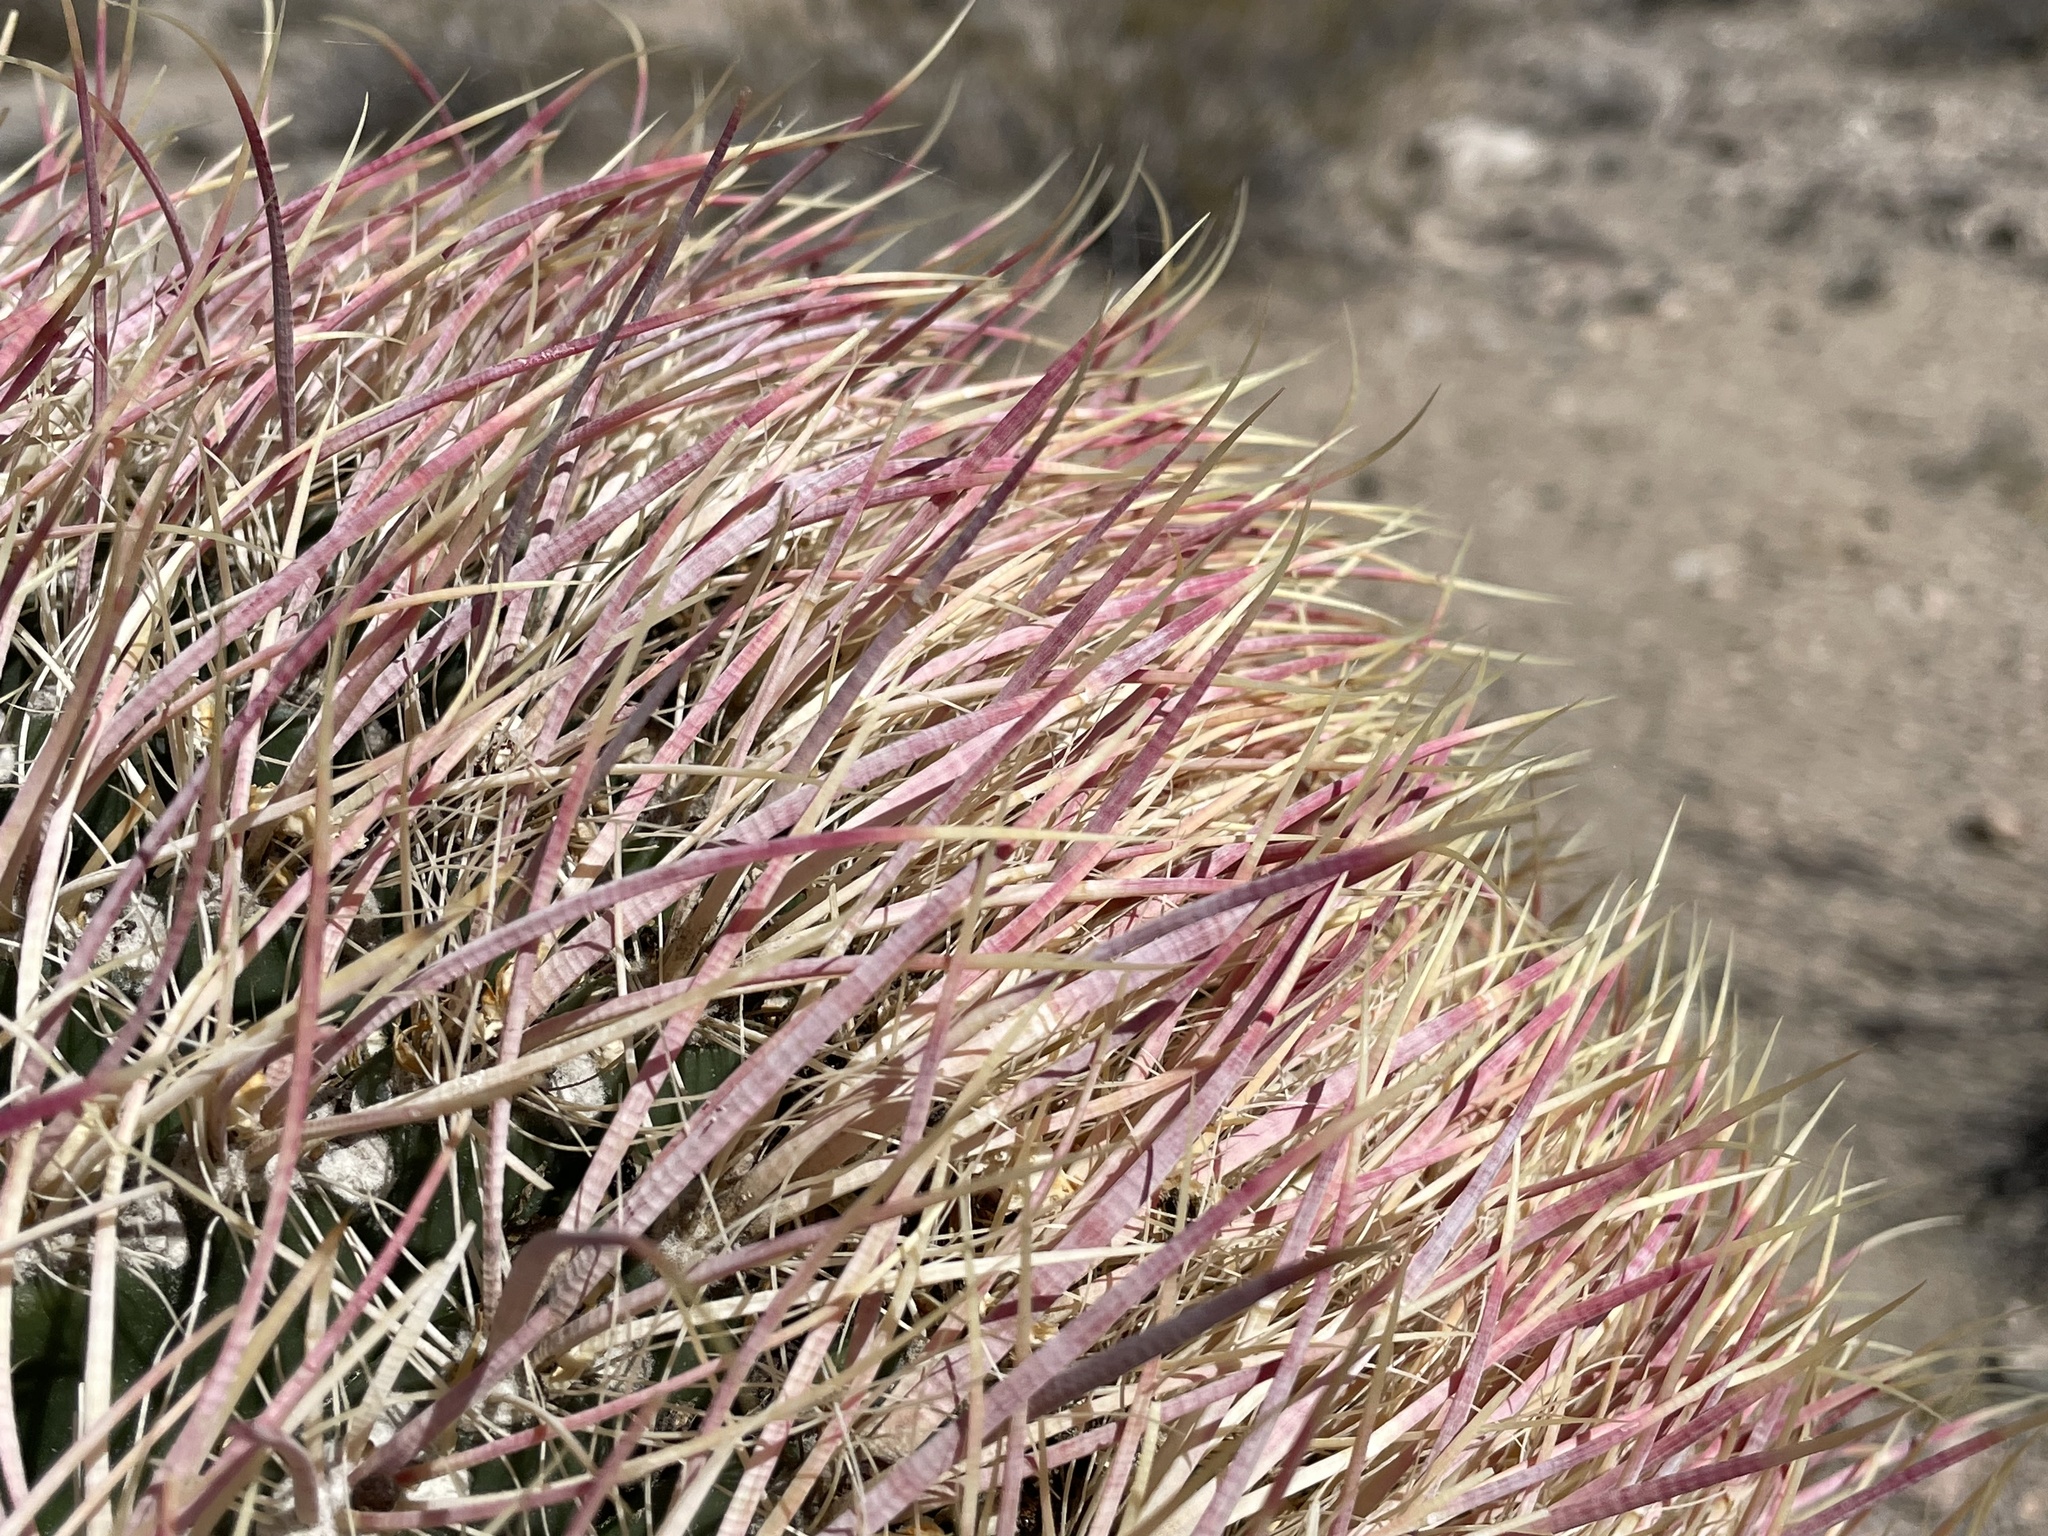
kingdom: Plantae
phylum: Tracheophyta
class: Magnoliopsida
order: Caryophyllales
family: Cactaceae
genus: Ferocactus
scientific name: Ferocactus cylindraceus
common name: California barrel cactus
